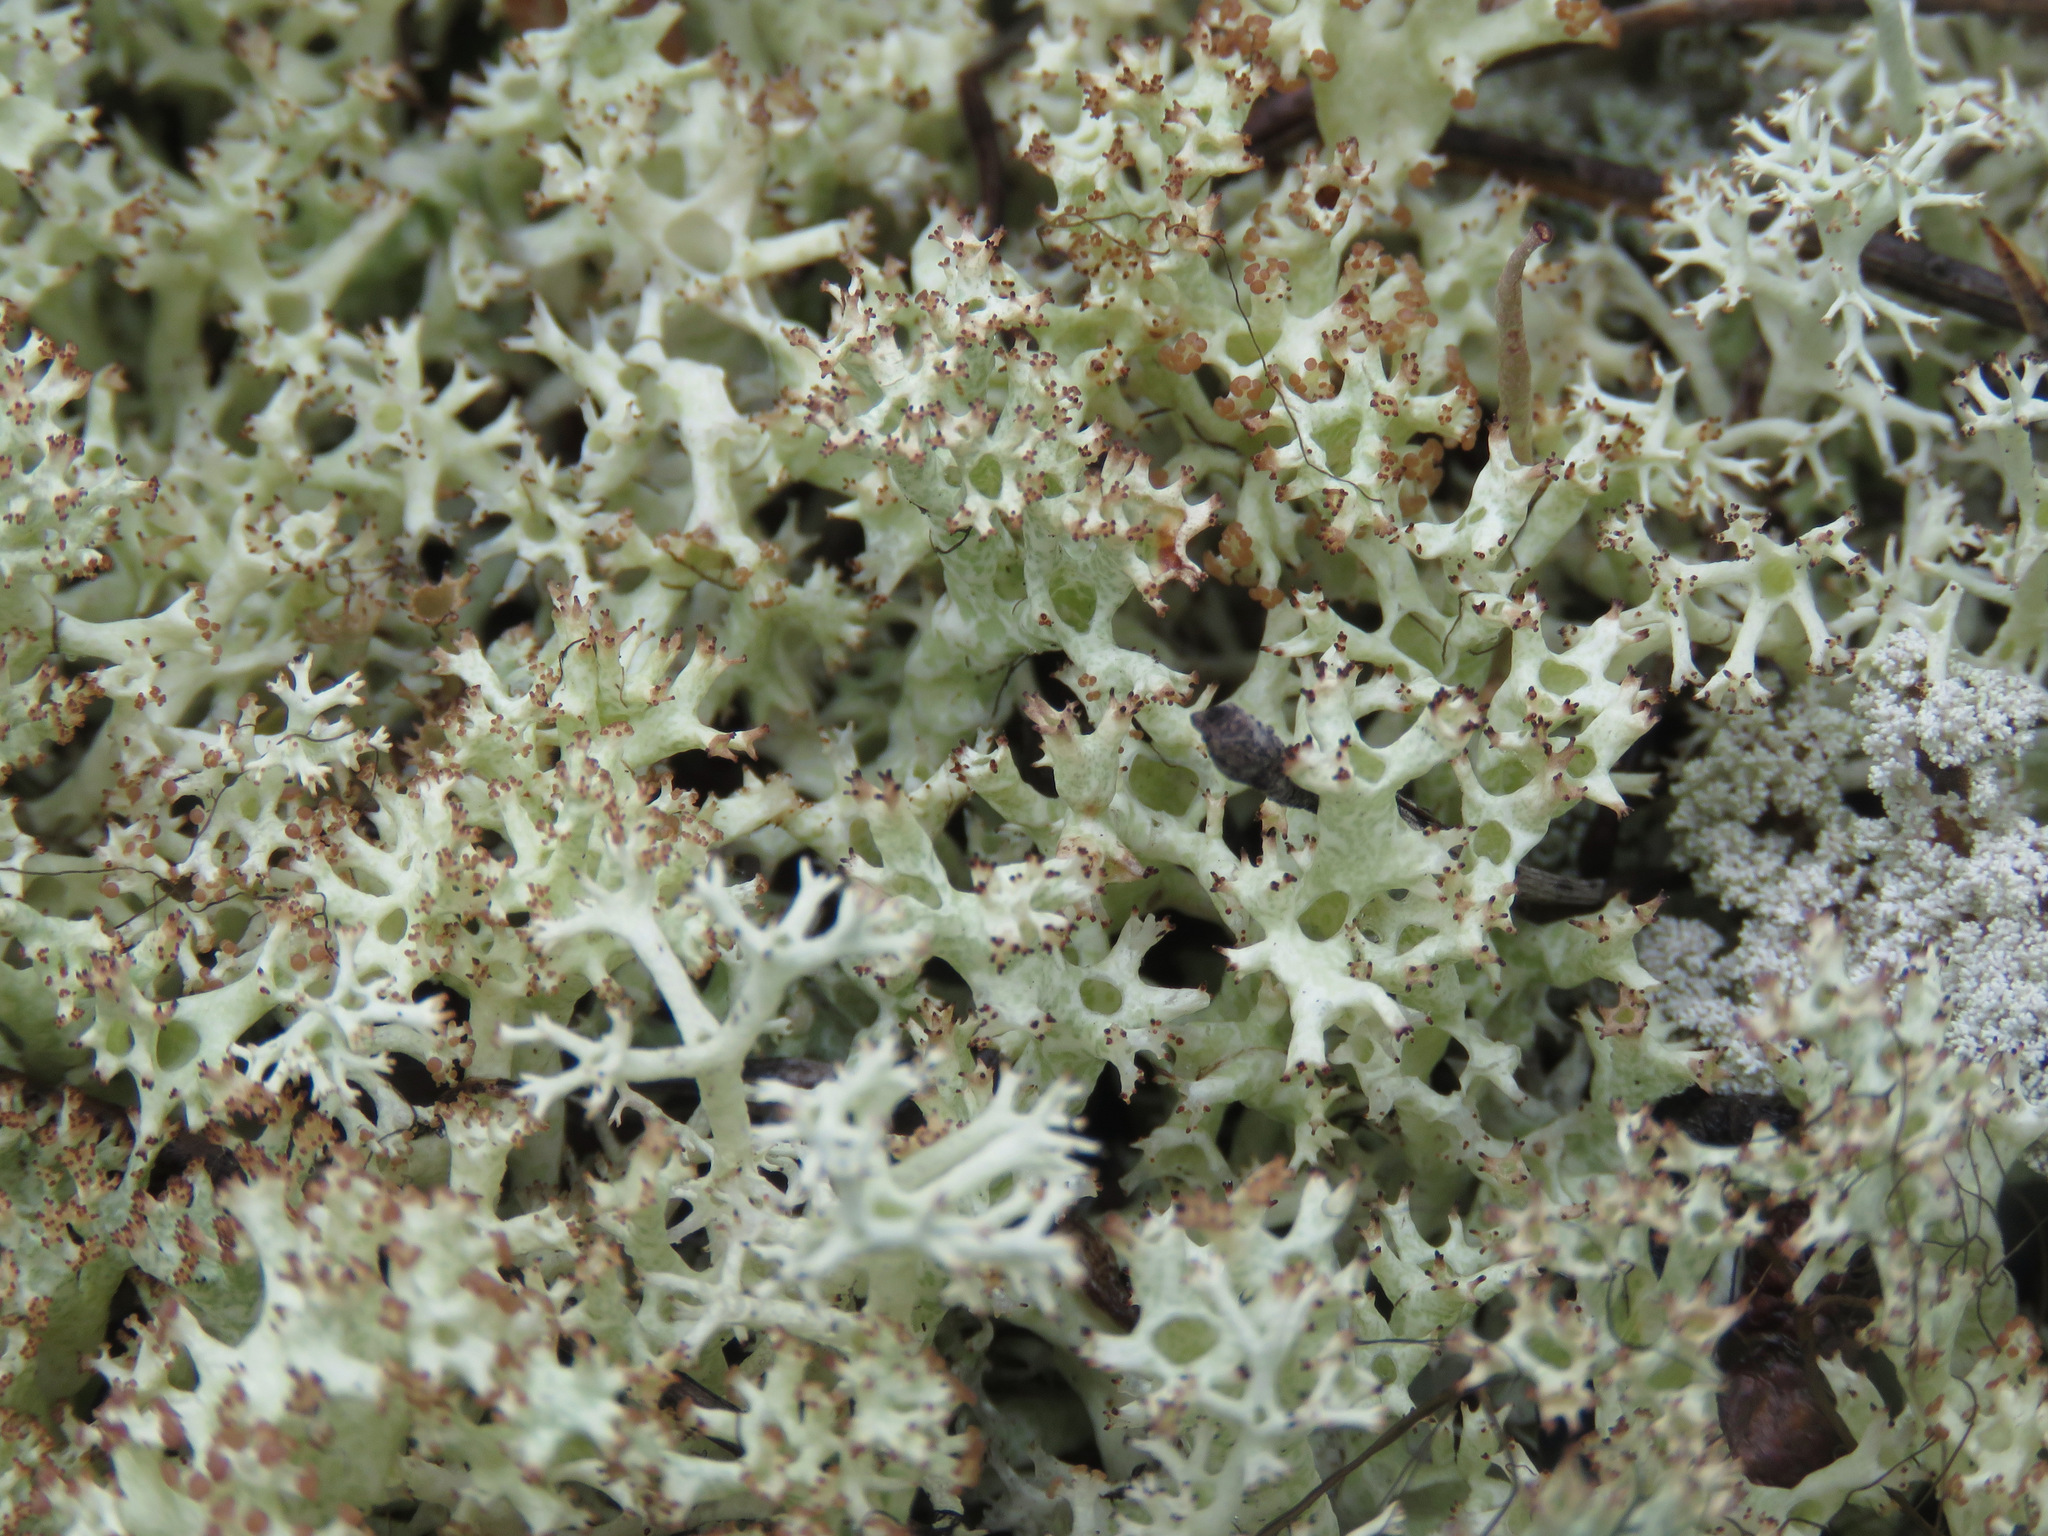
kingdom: Fungi
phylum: Ascomycota
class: Lecanoromycetes
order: Lecanorales
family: Cladoniaceae
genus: Cladonia
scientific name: Cladonia uncialis
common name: Thorn lichen
